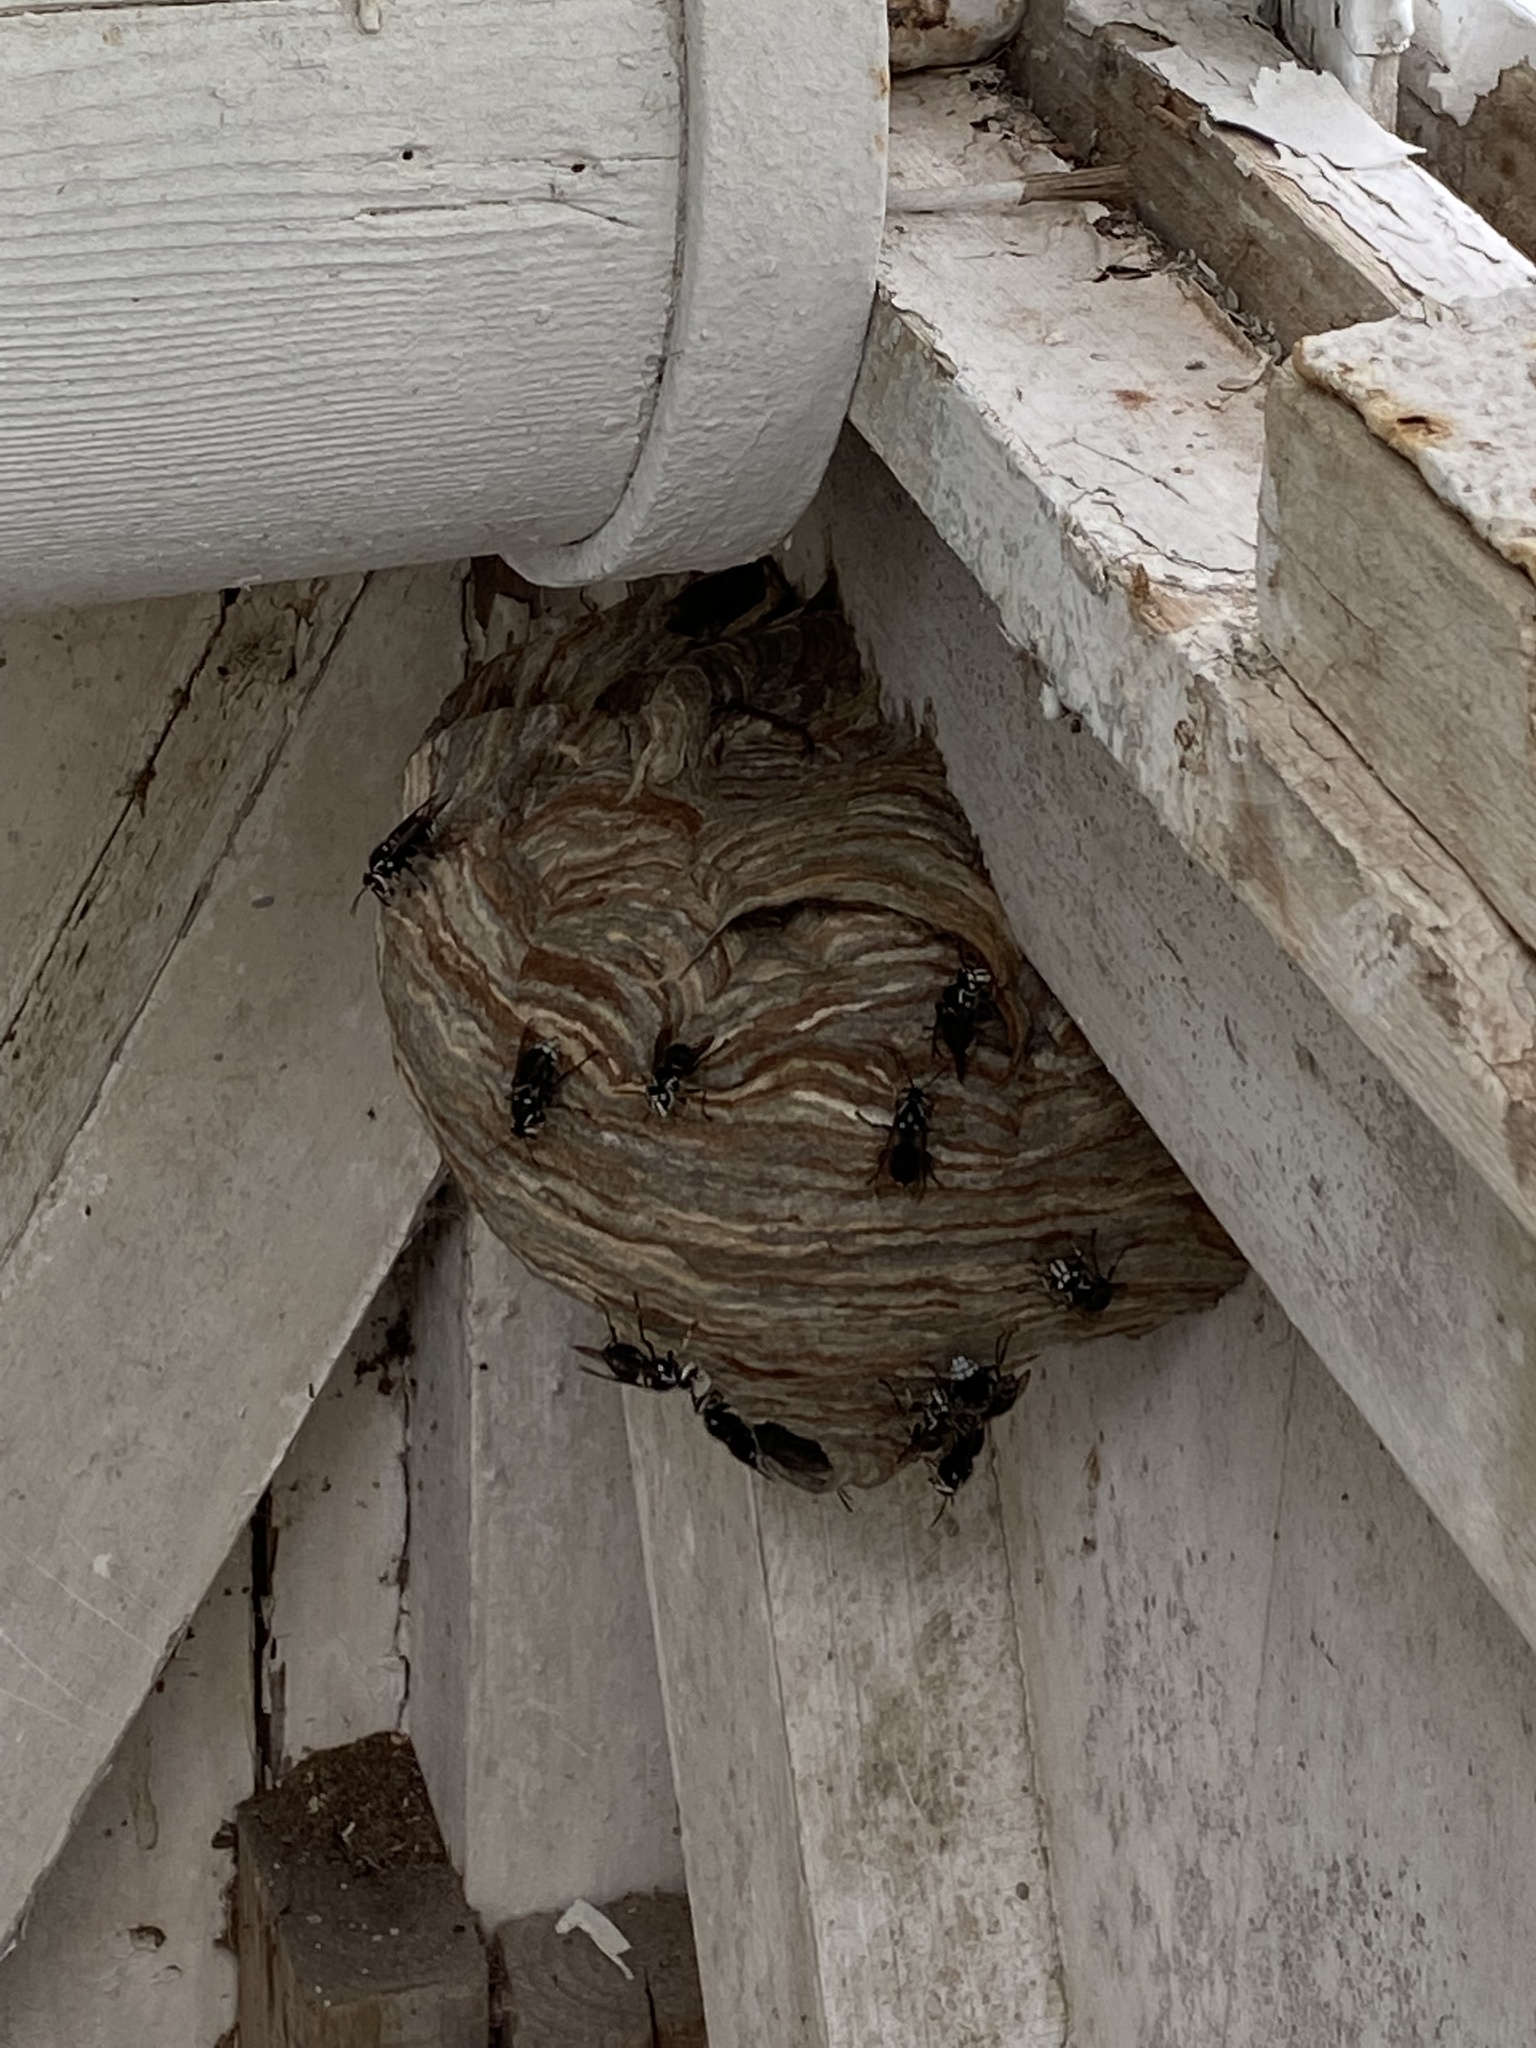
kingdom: Animalia
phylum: Arthropoda
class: Insecta
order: Hymenoptera
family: Vespidae
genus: Dolichovespula
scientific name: Dolichovespula maculata
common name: Bald-faced hornet
